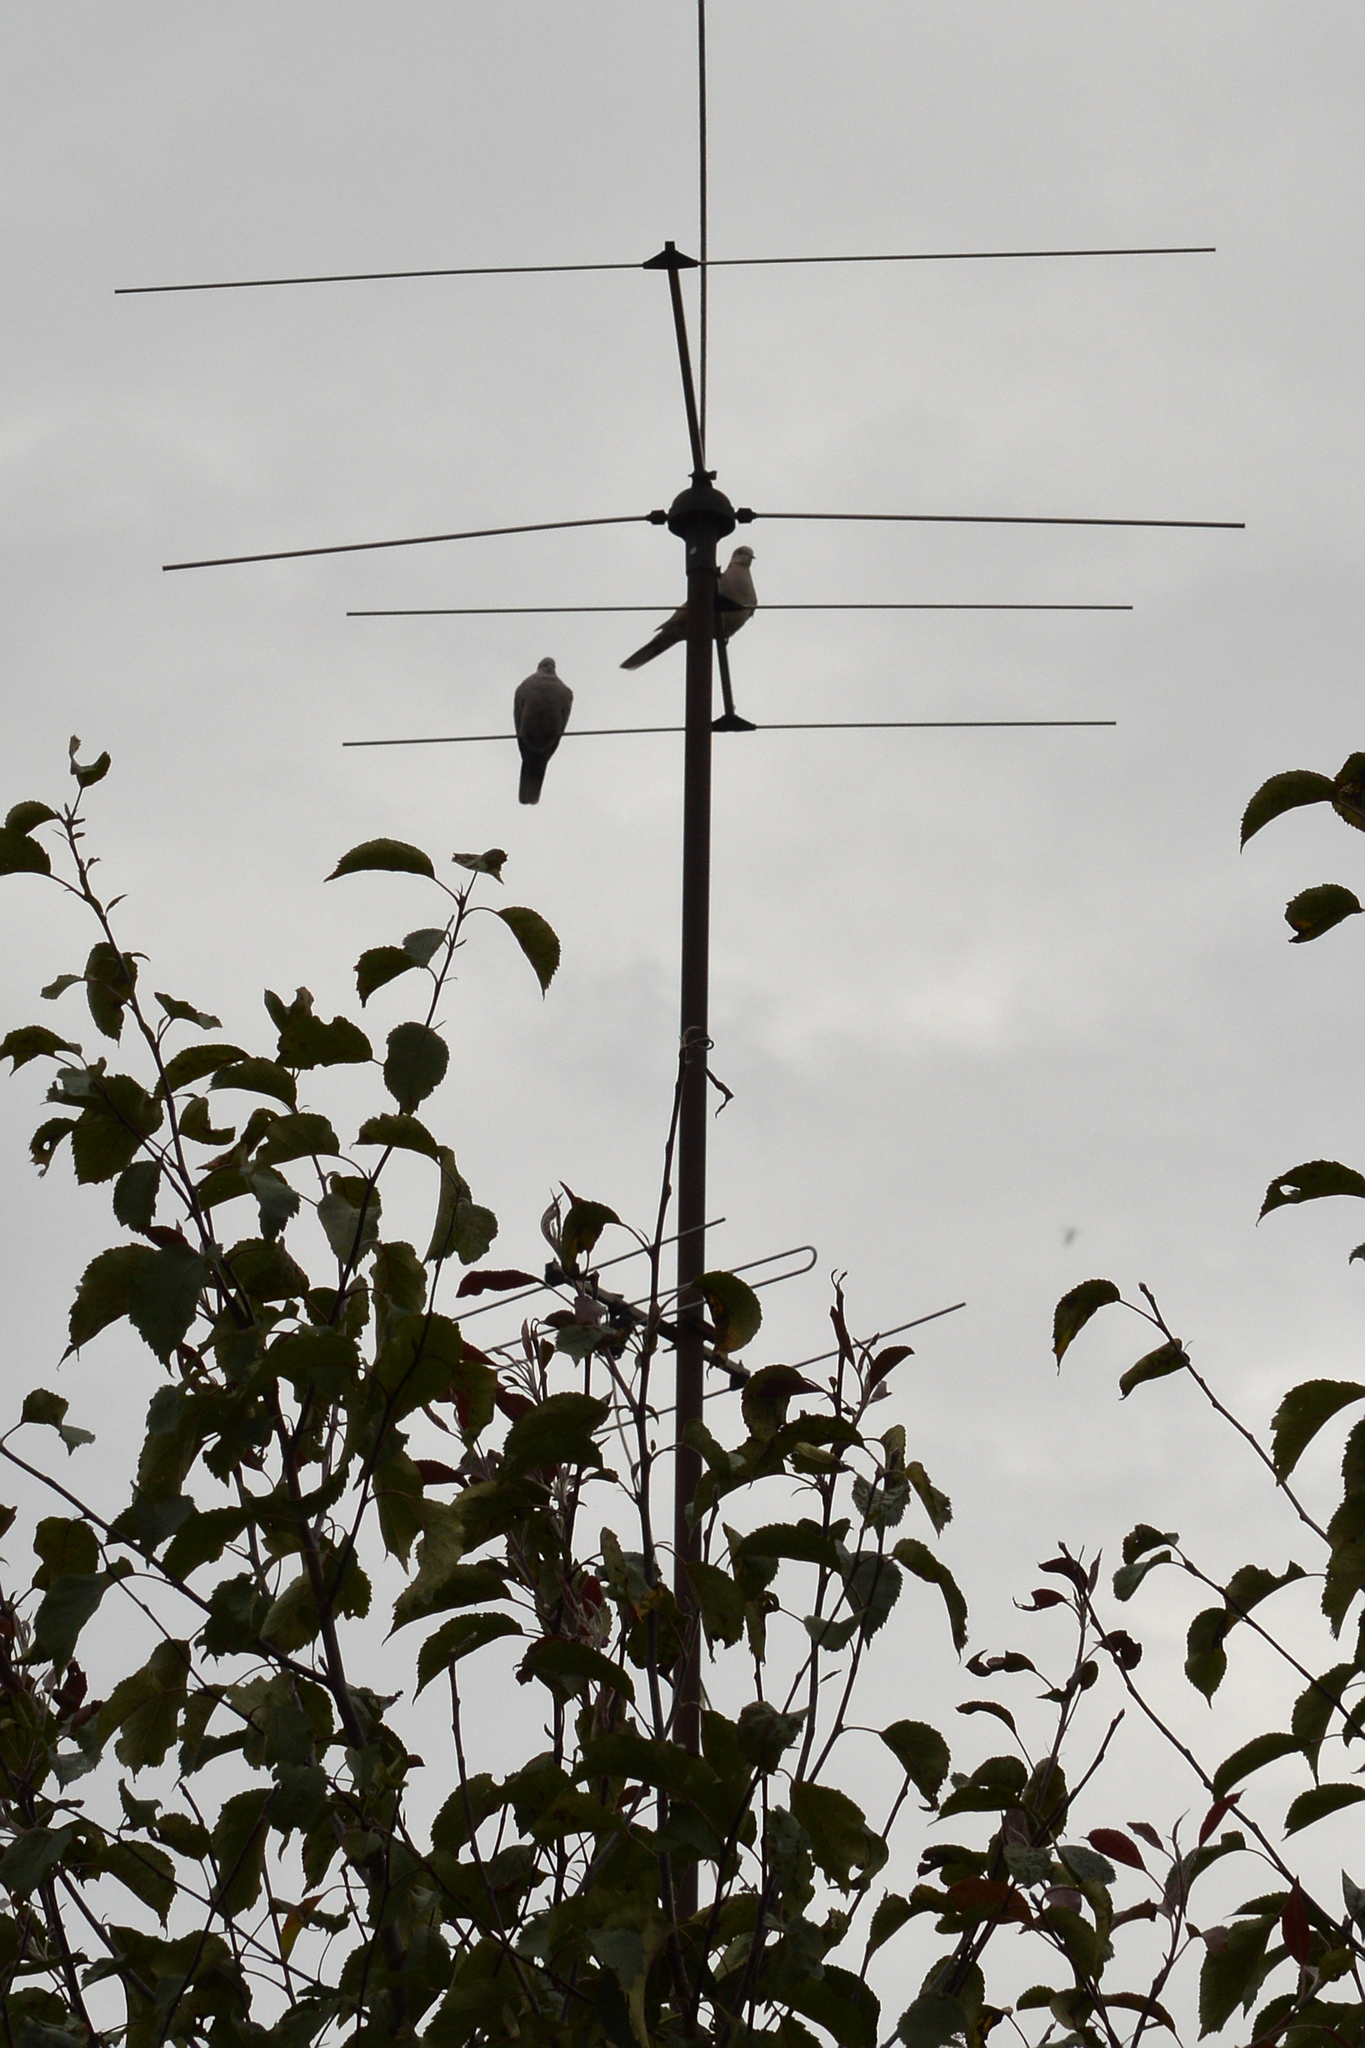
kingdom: Animalia
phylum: Chordata
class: Aves
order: Columbiformes
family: Columbidae
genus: Streptopelia
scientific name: Streptopelia decaocto
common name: Eurasian collared dove
